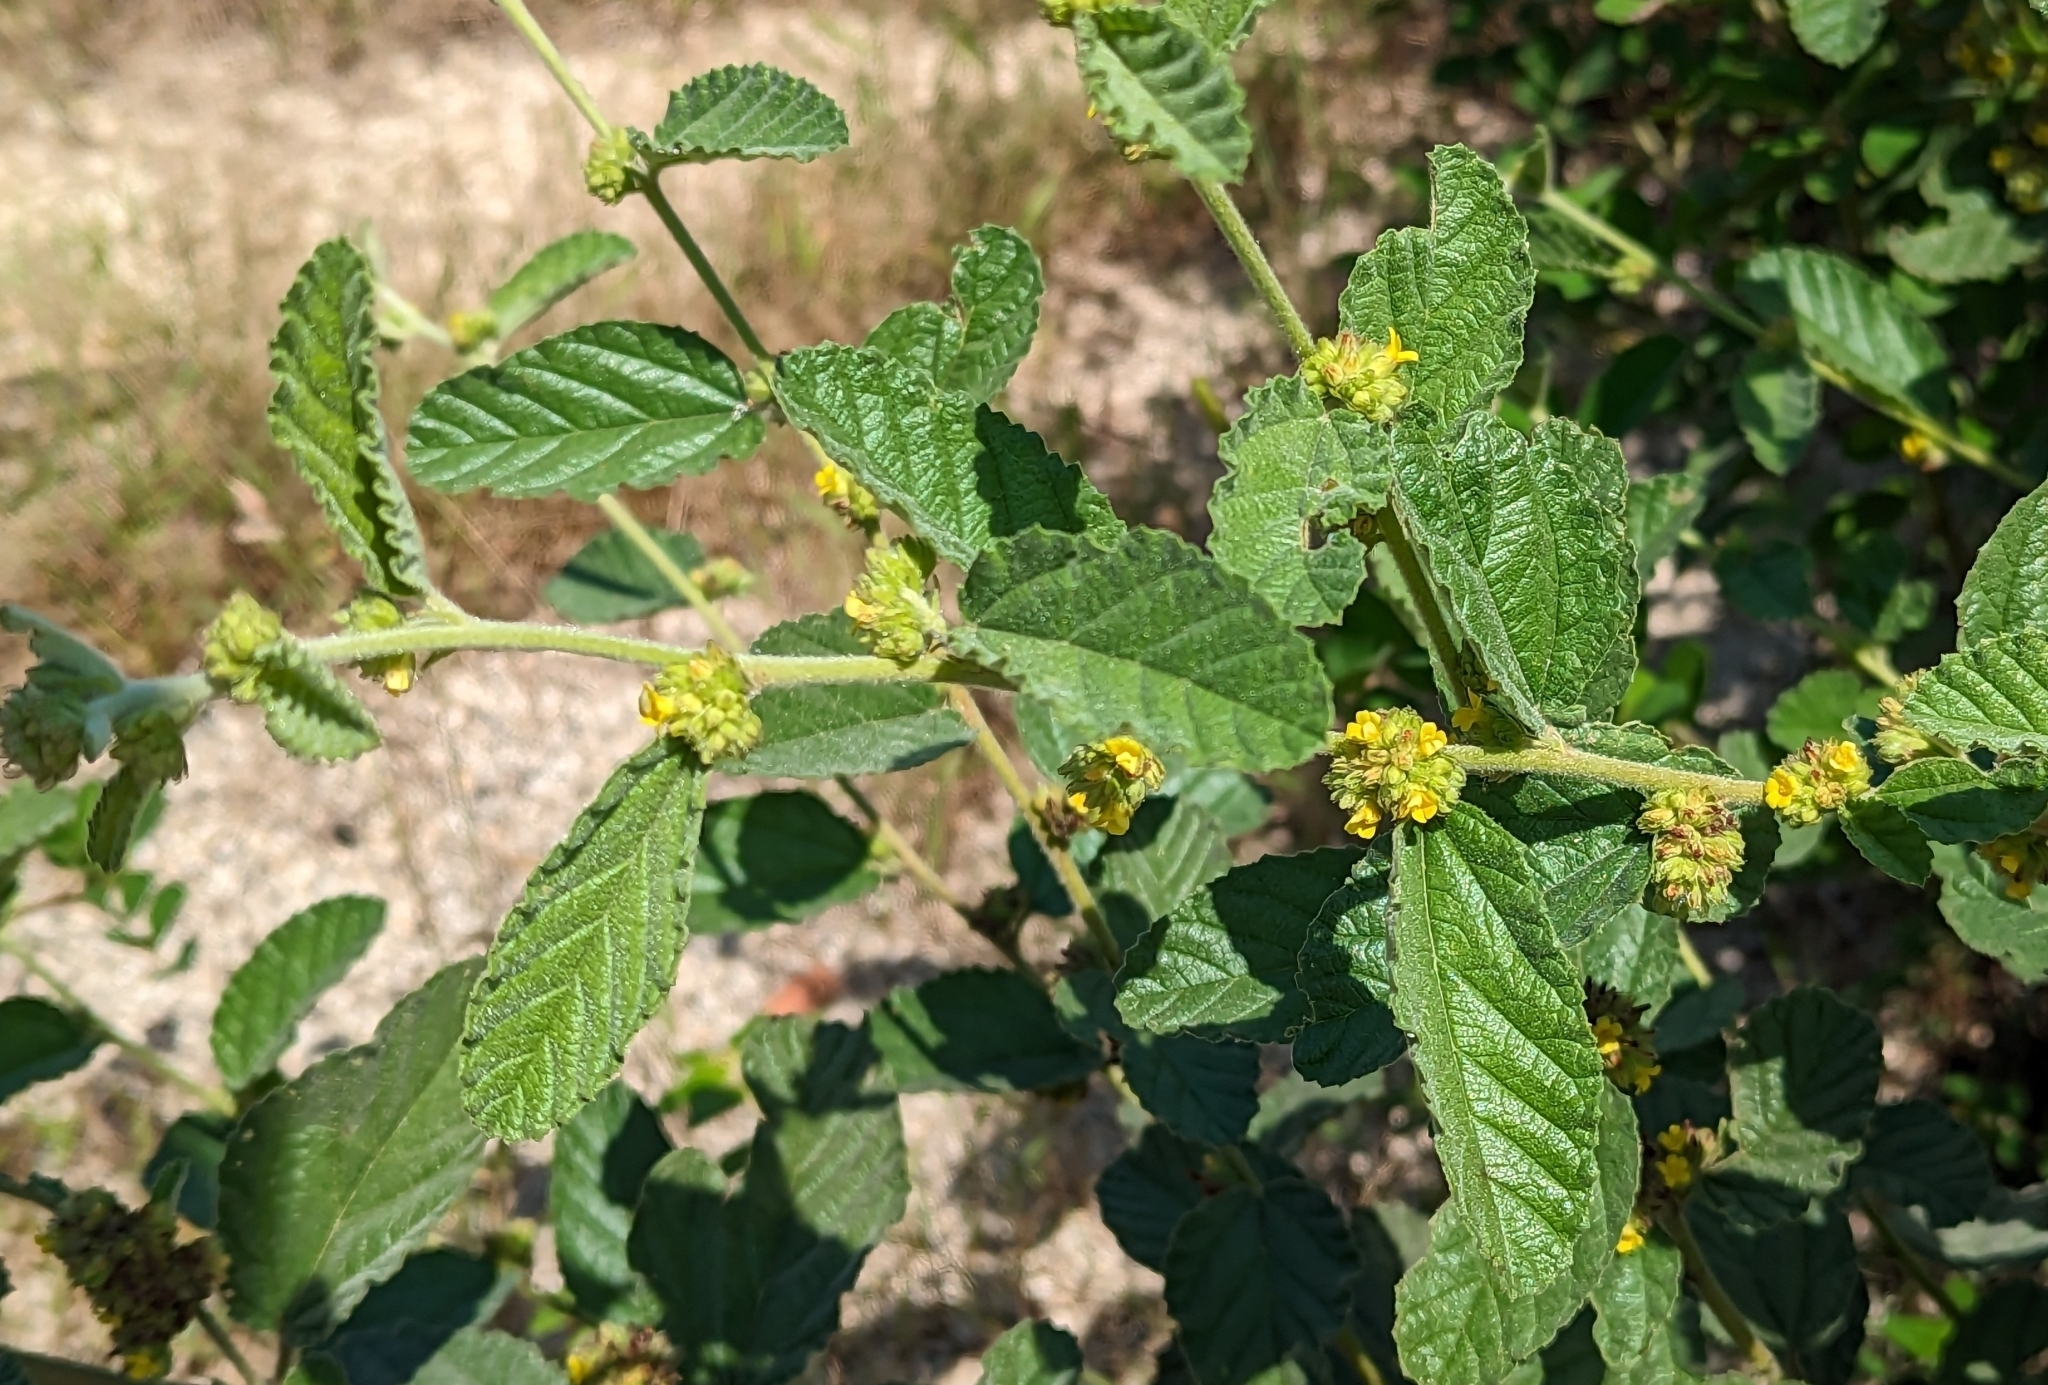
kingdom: Plantae
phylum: Tracheophyta
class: Magnoliopsida
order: Malvales
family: Malvaceae
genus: Waltheria
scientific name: Waltheria indica
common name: Leather-coat
